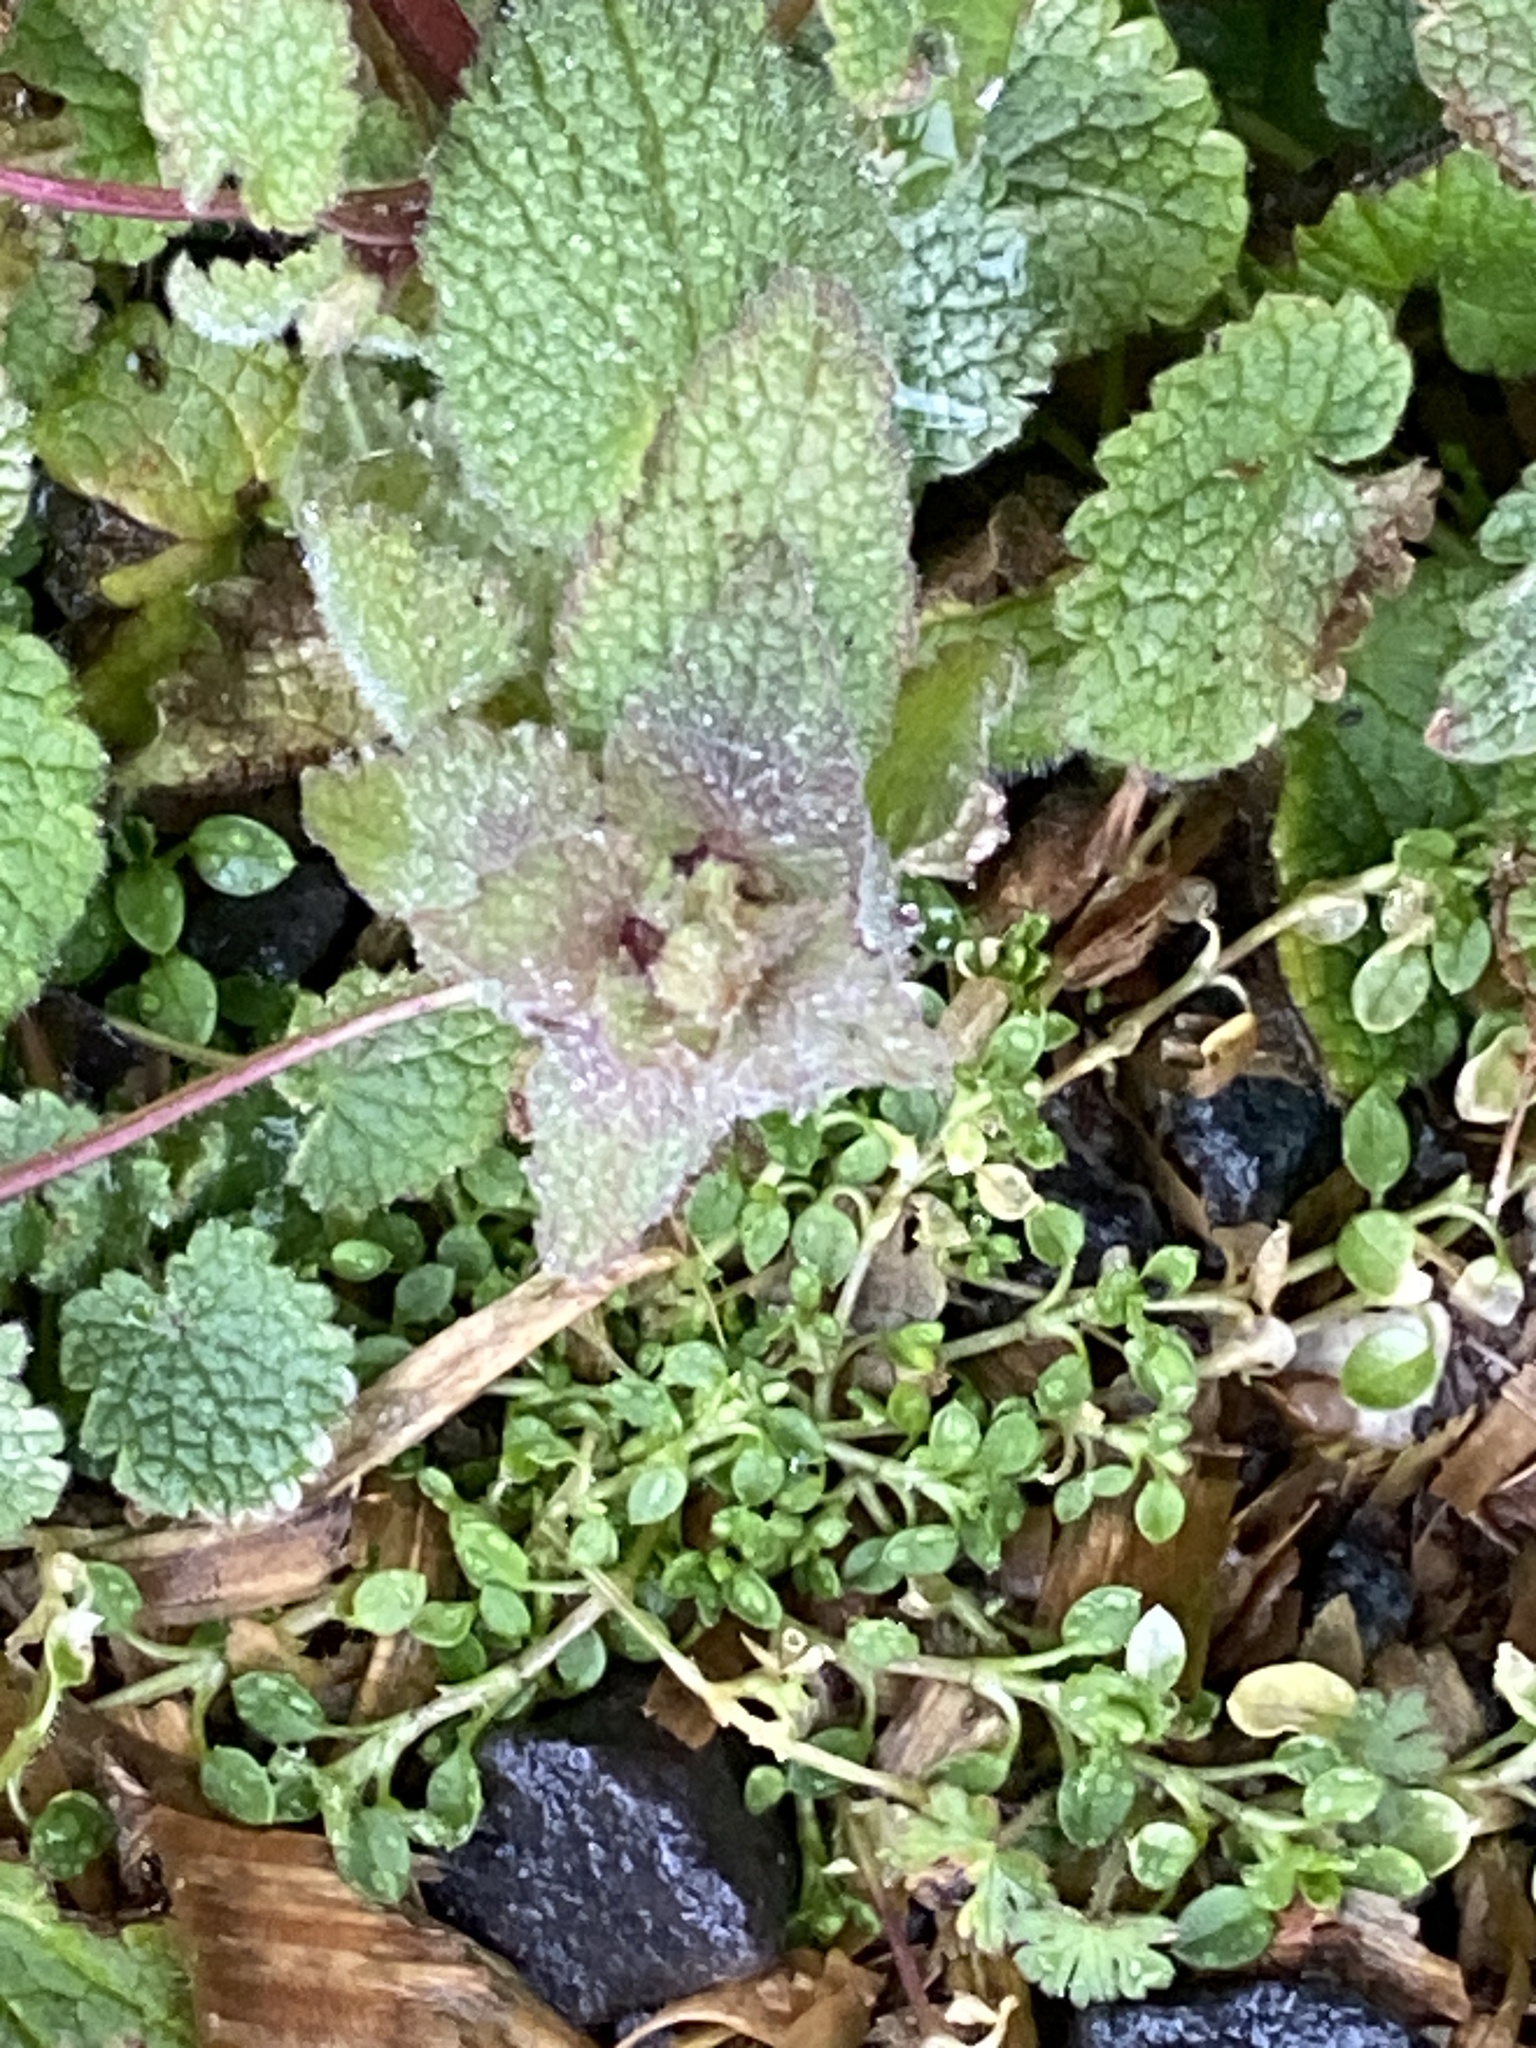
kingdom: Plantae
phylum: Tracheophyta
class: Magnoliopsida
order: Lamiales
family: Lamiaceae
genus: Lamium
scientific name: Lamium purpureum
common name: Red dead-nettle
